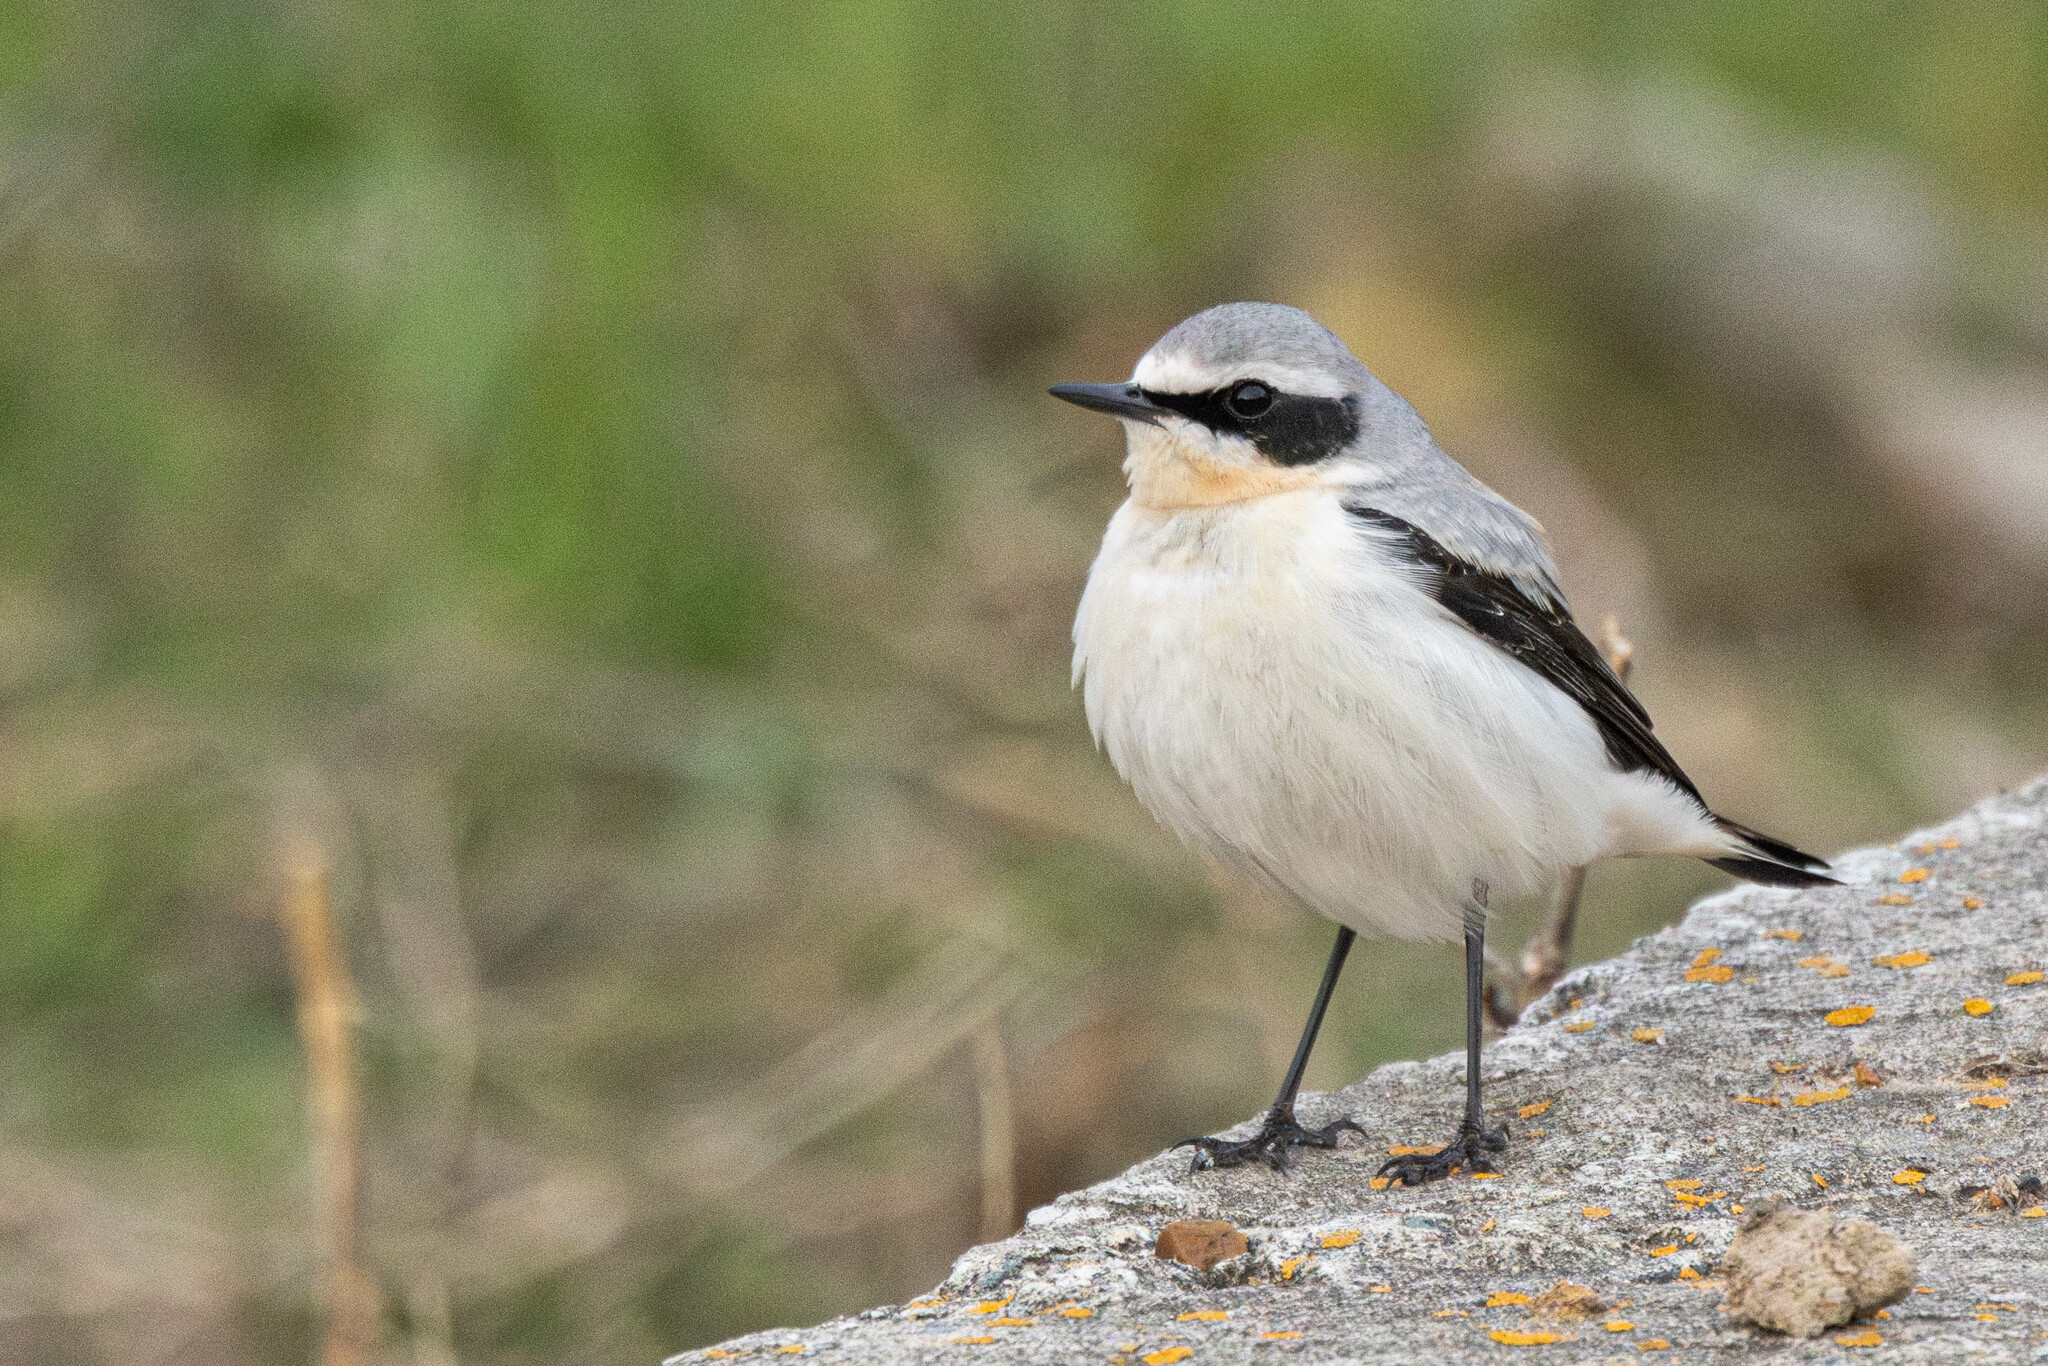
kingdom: Animalia
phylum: Chordata
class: Aves
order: Passeriformes
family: Muscicapidae
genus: Oenanthe
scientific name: Oenanthe oenanthe
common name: Northern wheatear
